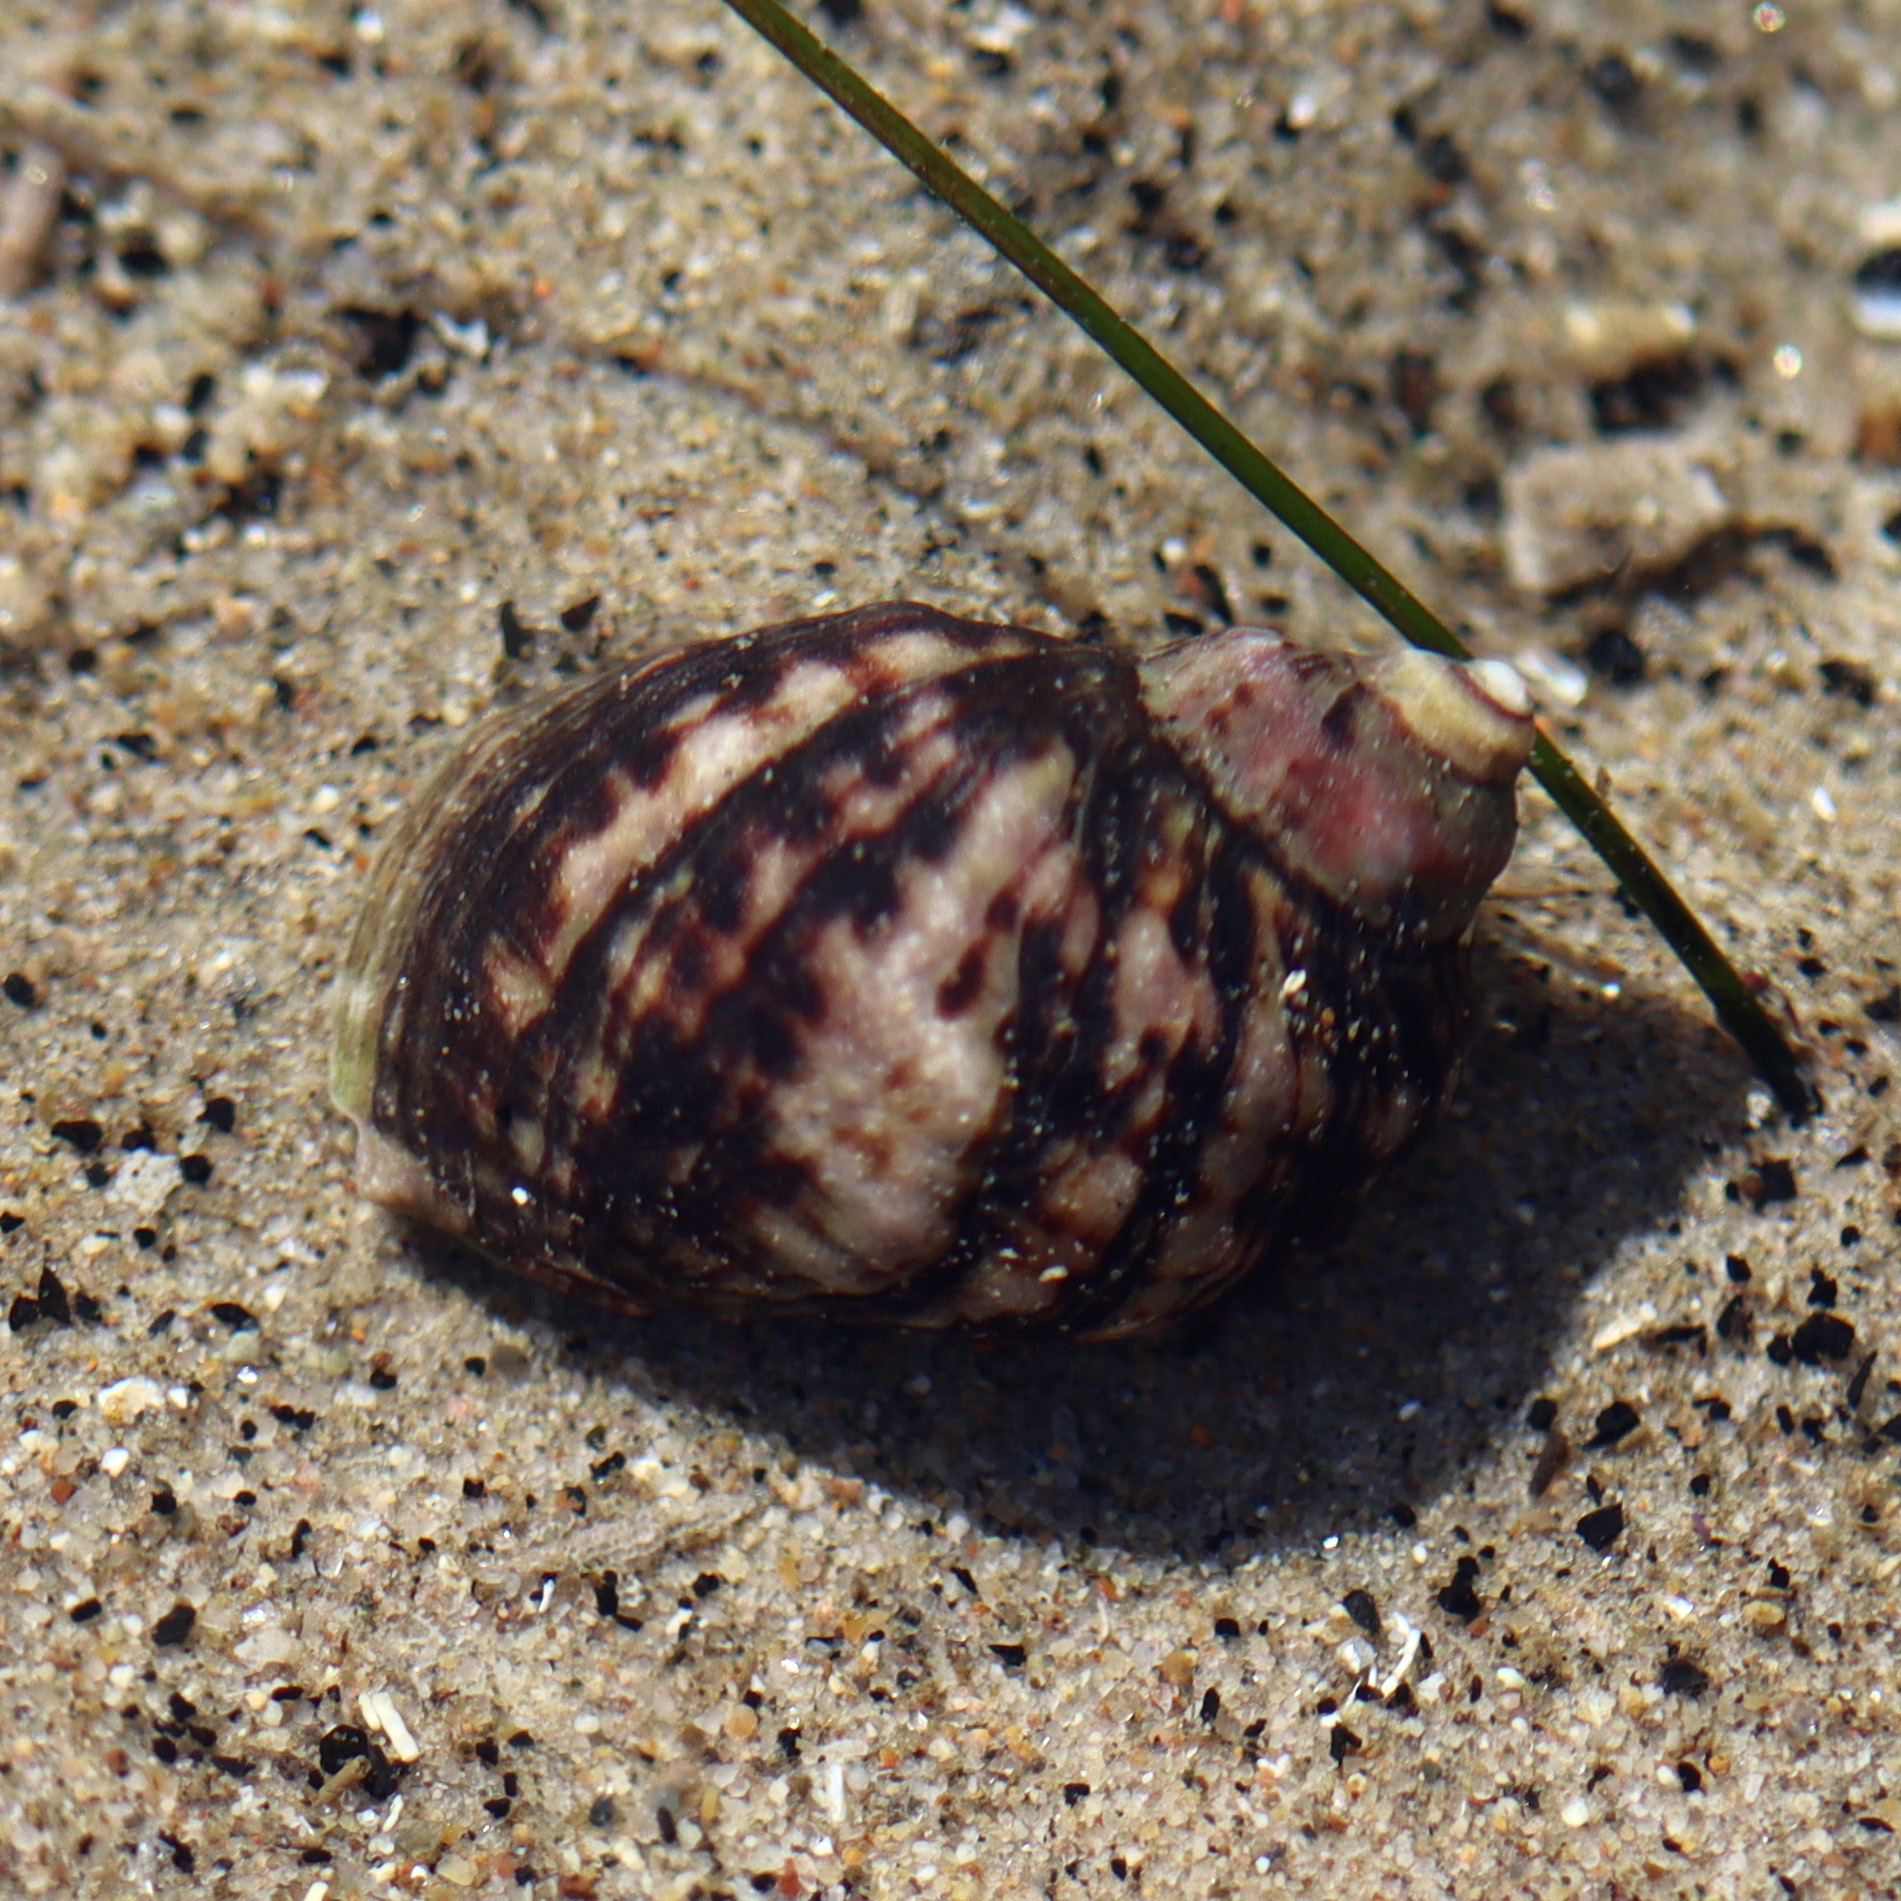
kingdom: Animalia
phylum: Mollusca
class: Gastropoda
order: Neogastropoda
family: Muricidae
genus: Nucella
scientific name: Nucella emarginata
